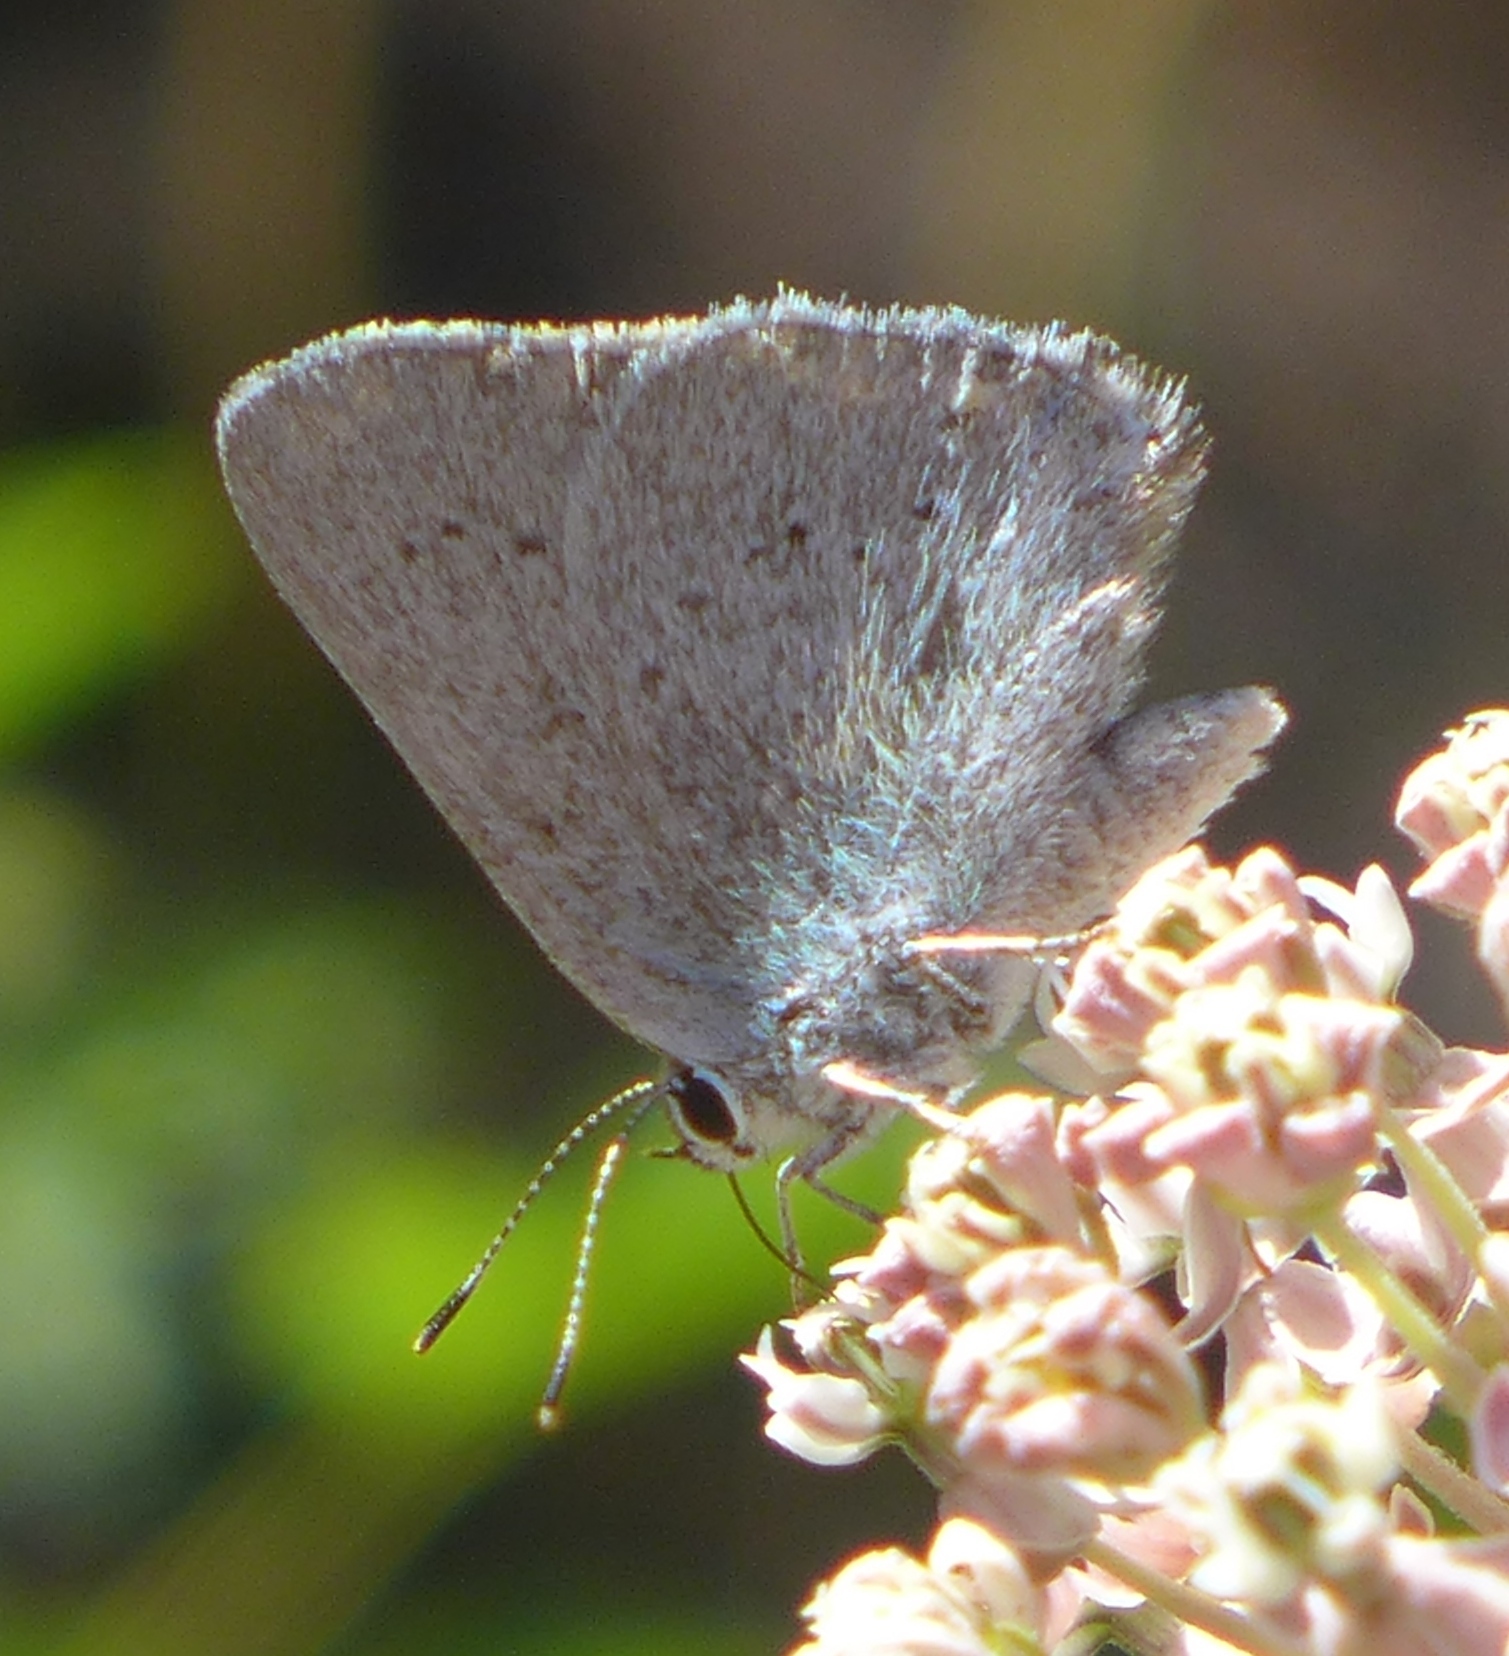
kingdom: Animalia
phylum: Arthropoda
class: Insecta
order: Lepidoptera
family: Lycaenidae
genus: Strymon
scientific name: Strymon sylvinus
